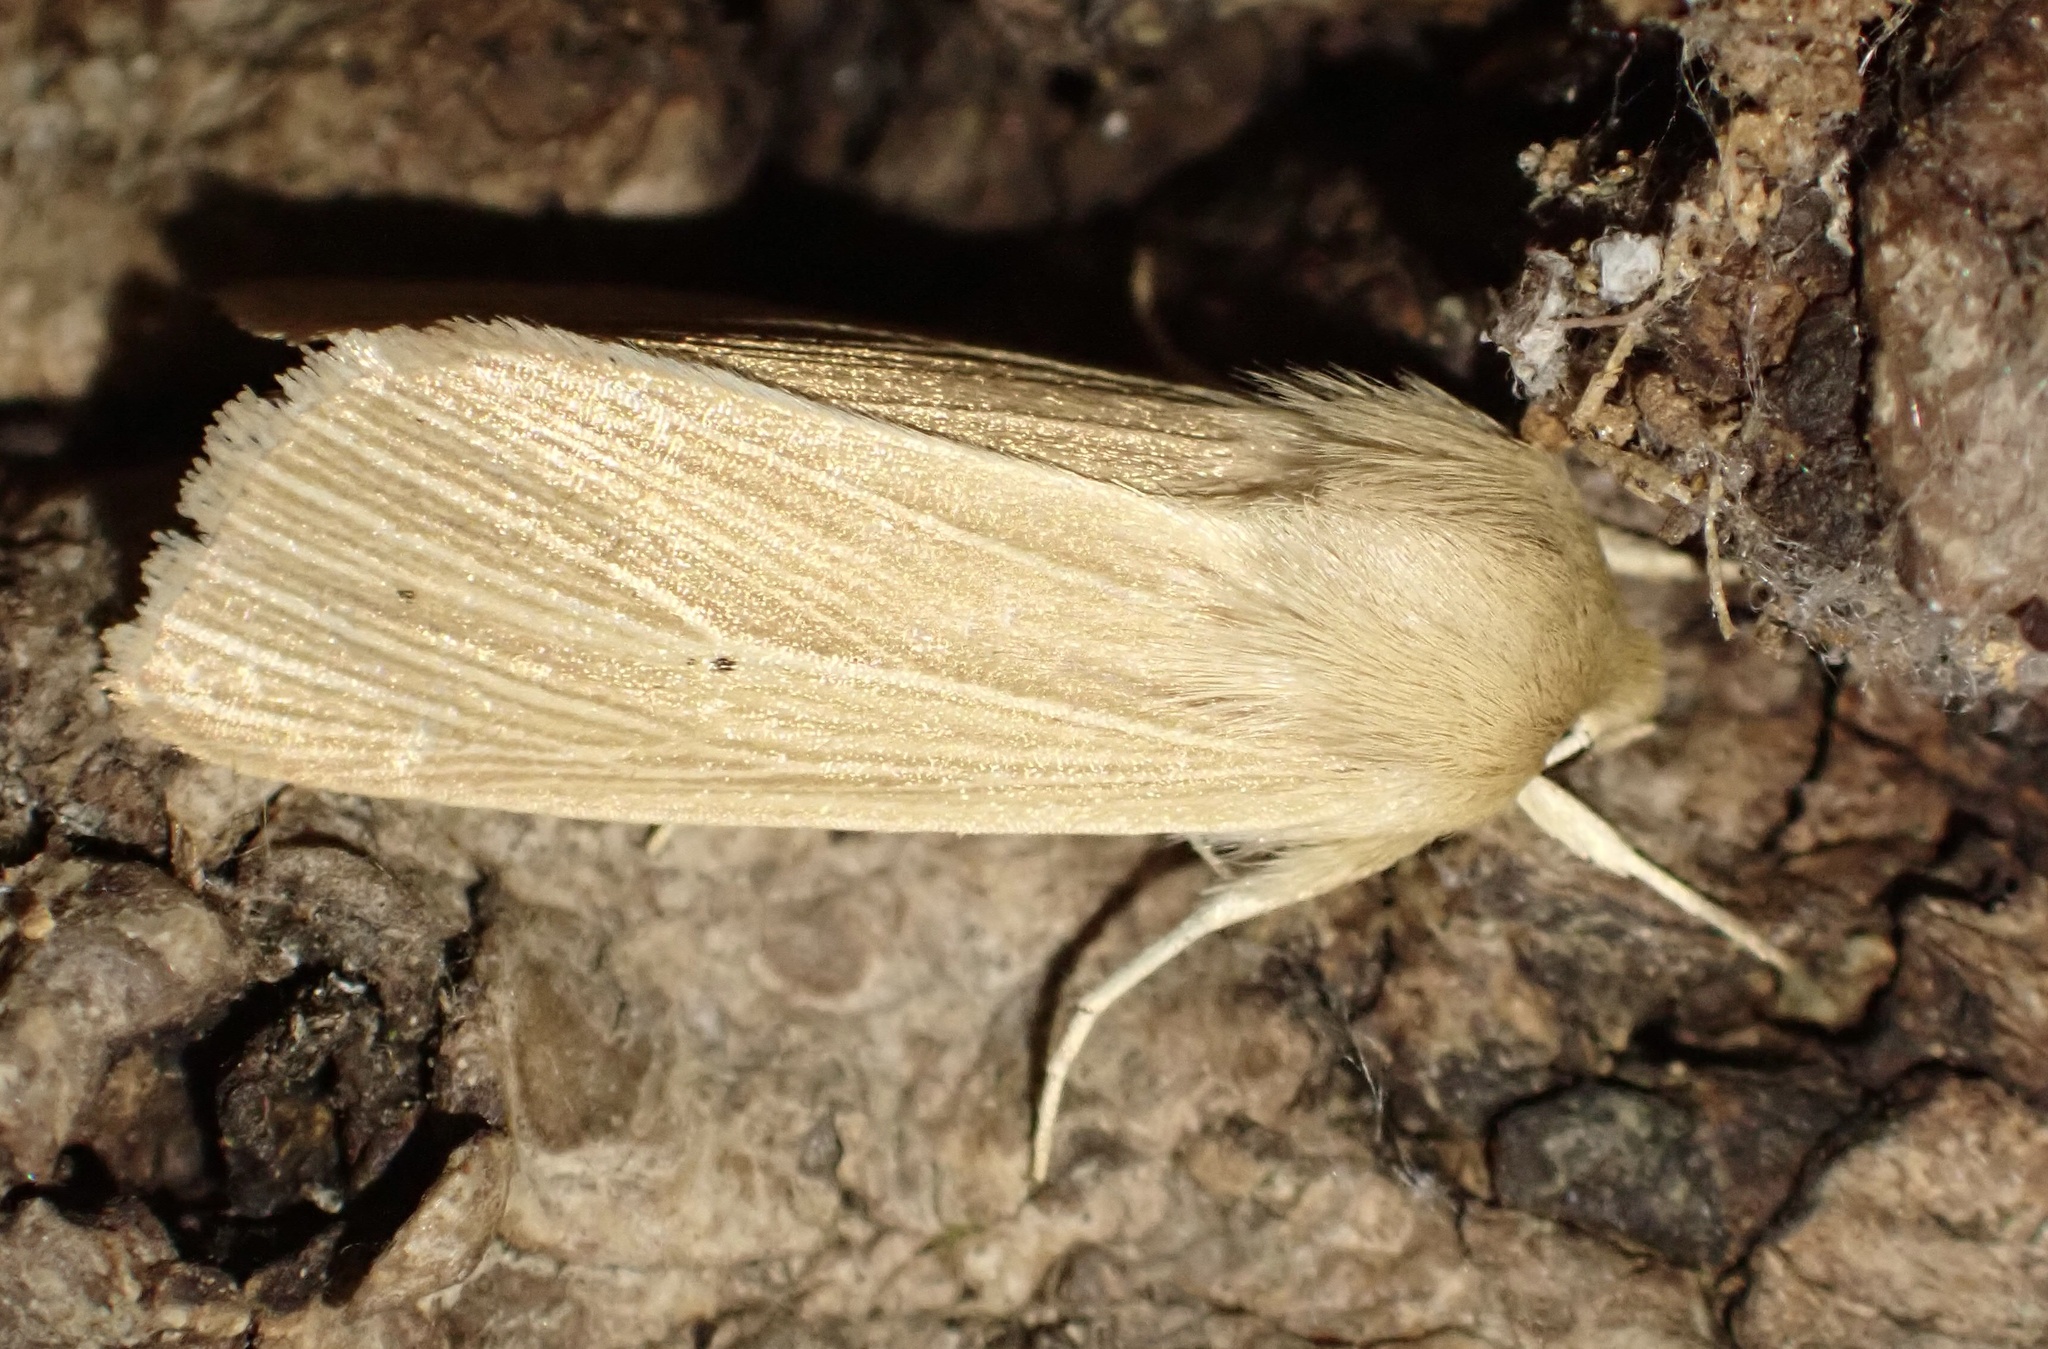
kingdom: Animalia
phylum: Arthropoda
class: Insecta
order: Lepidoptera
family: Noctuidae
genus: Mythimna
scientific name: Mythimna pallens
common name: Common wainscot
